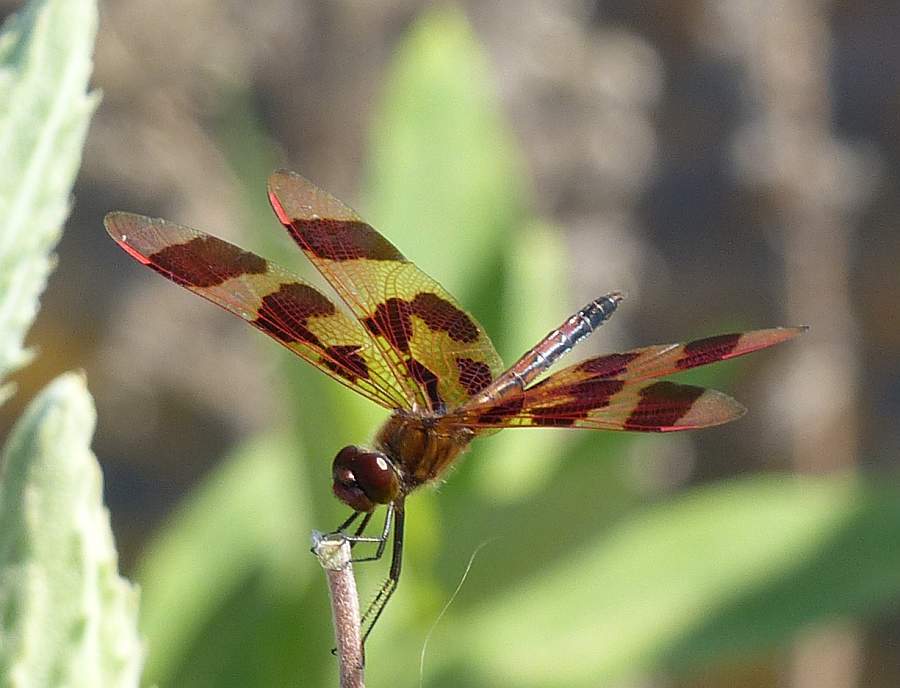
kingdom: Animalia
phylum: Arthropoda
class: Insecta
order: Odonata
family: Libellulidae
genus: Celithemis
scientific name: Celithemis eponina
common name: Halloween pennant
